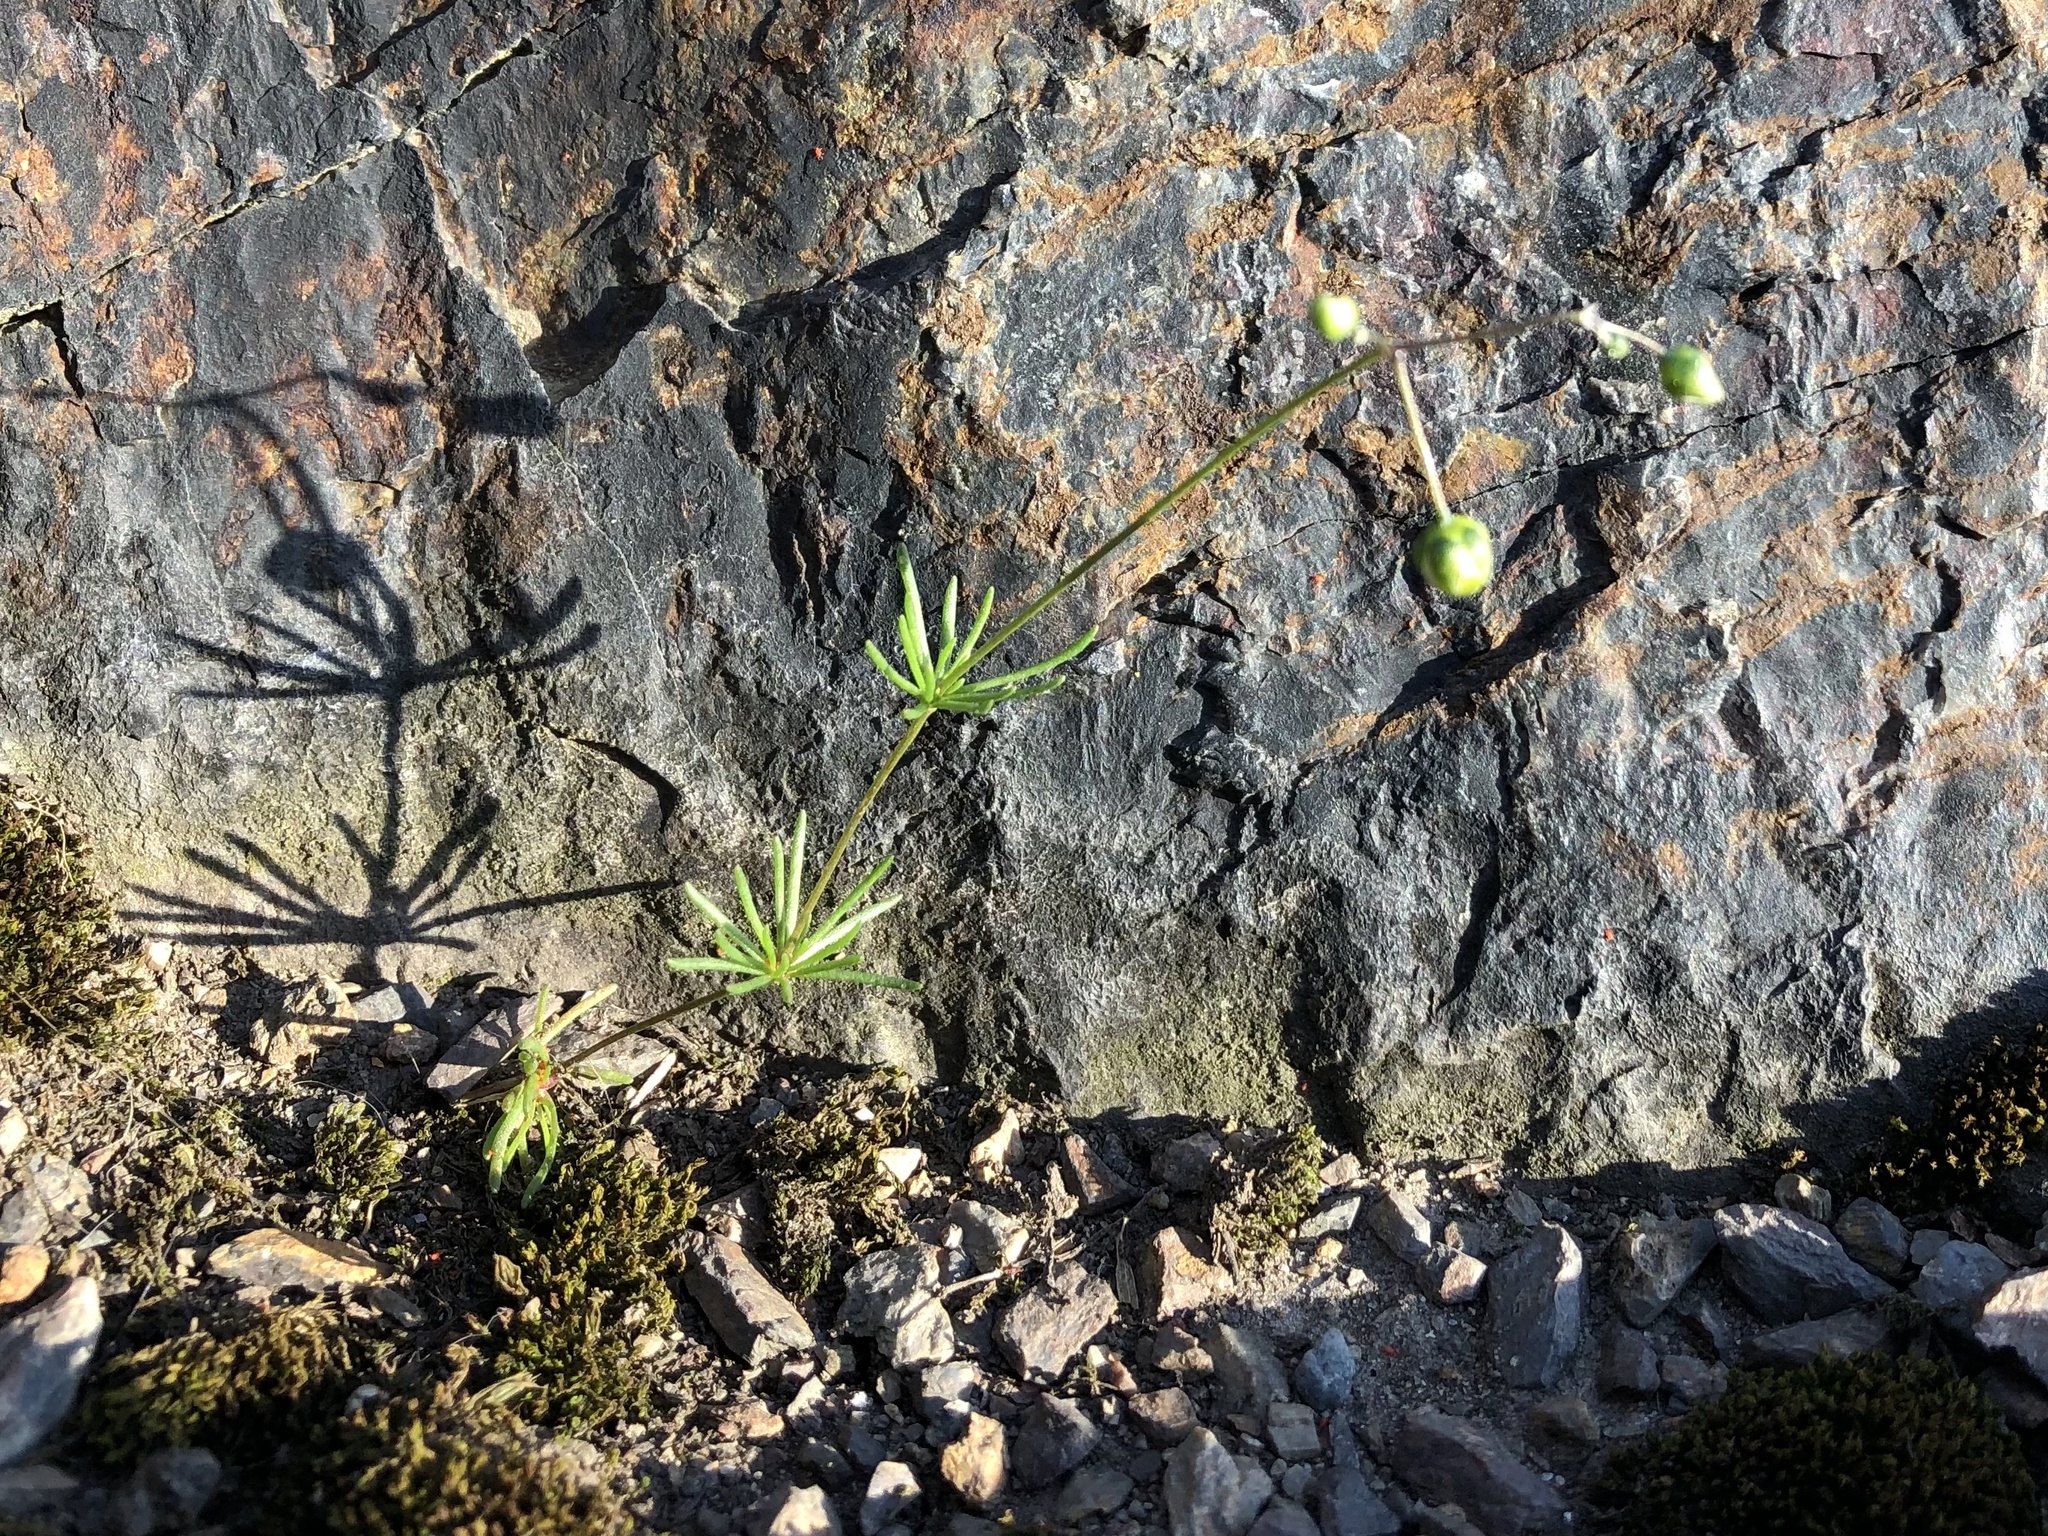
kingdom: Plantae
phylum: Tracheophyta
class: Magnoliopsida
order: Caryophyllales
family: Caryophyllaceae
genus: Spergula
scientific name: Spergula morisonii
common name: Pearlwort spurrey
